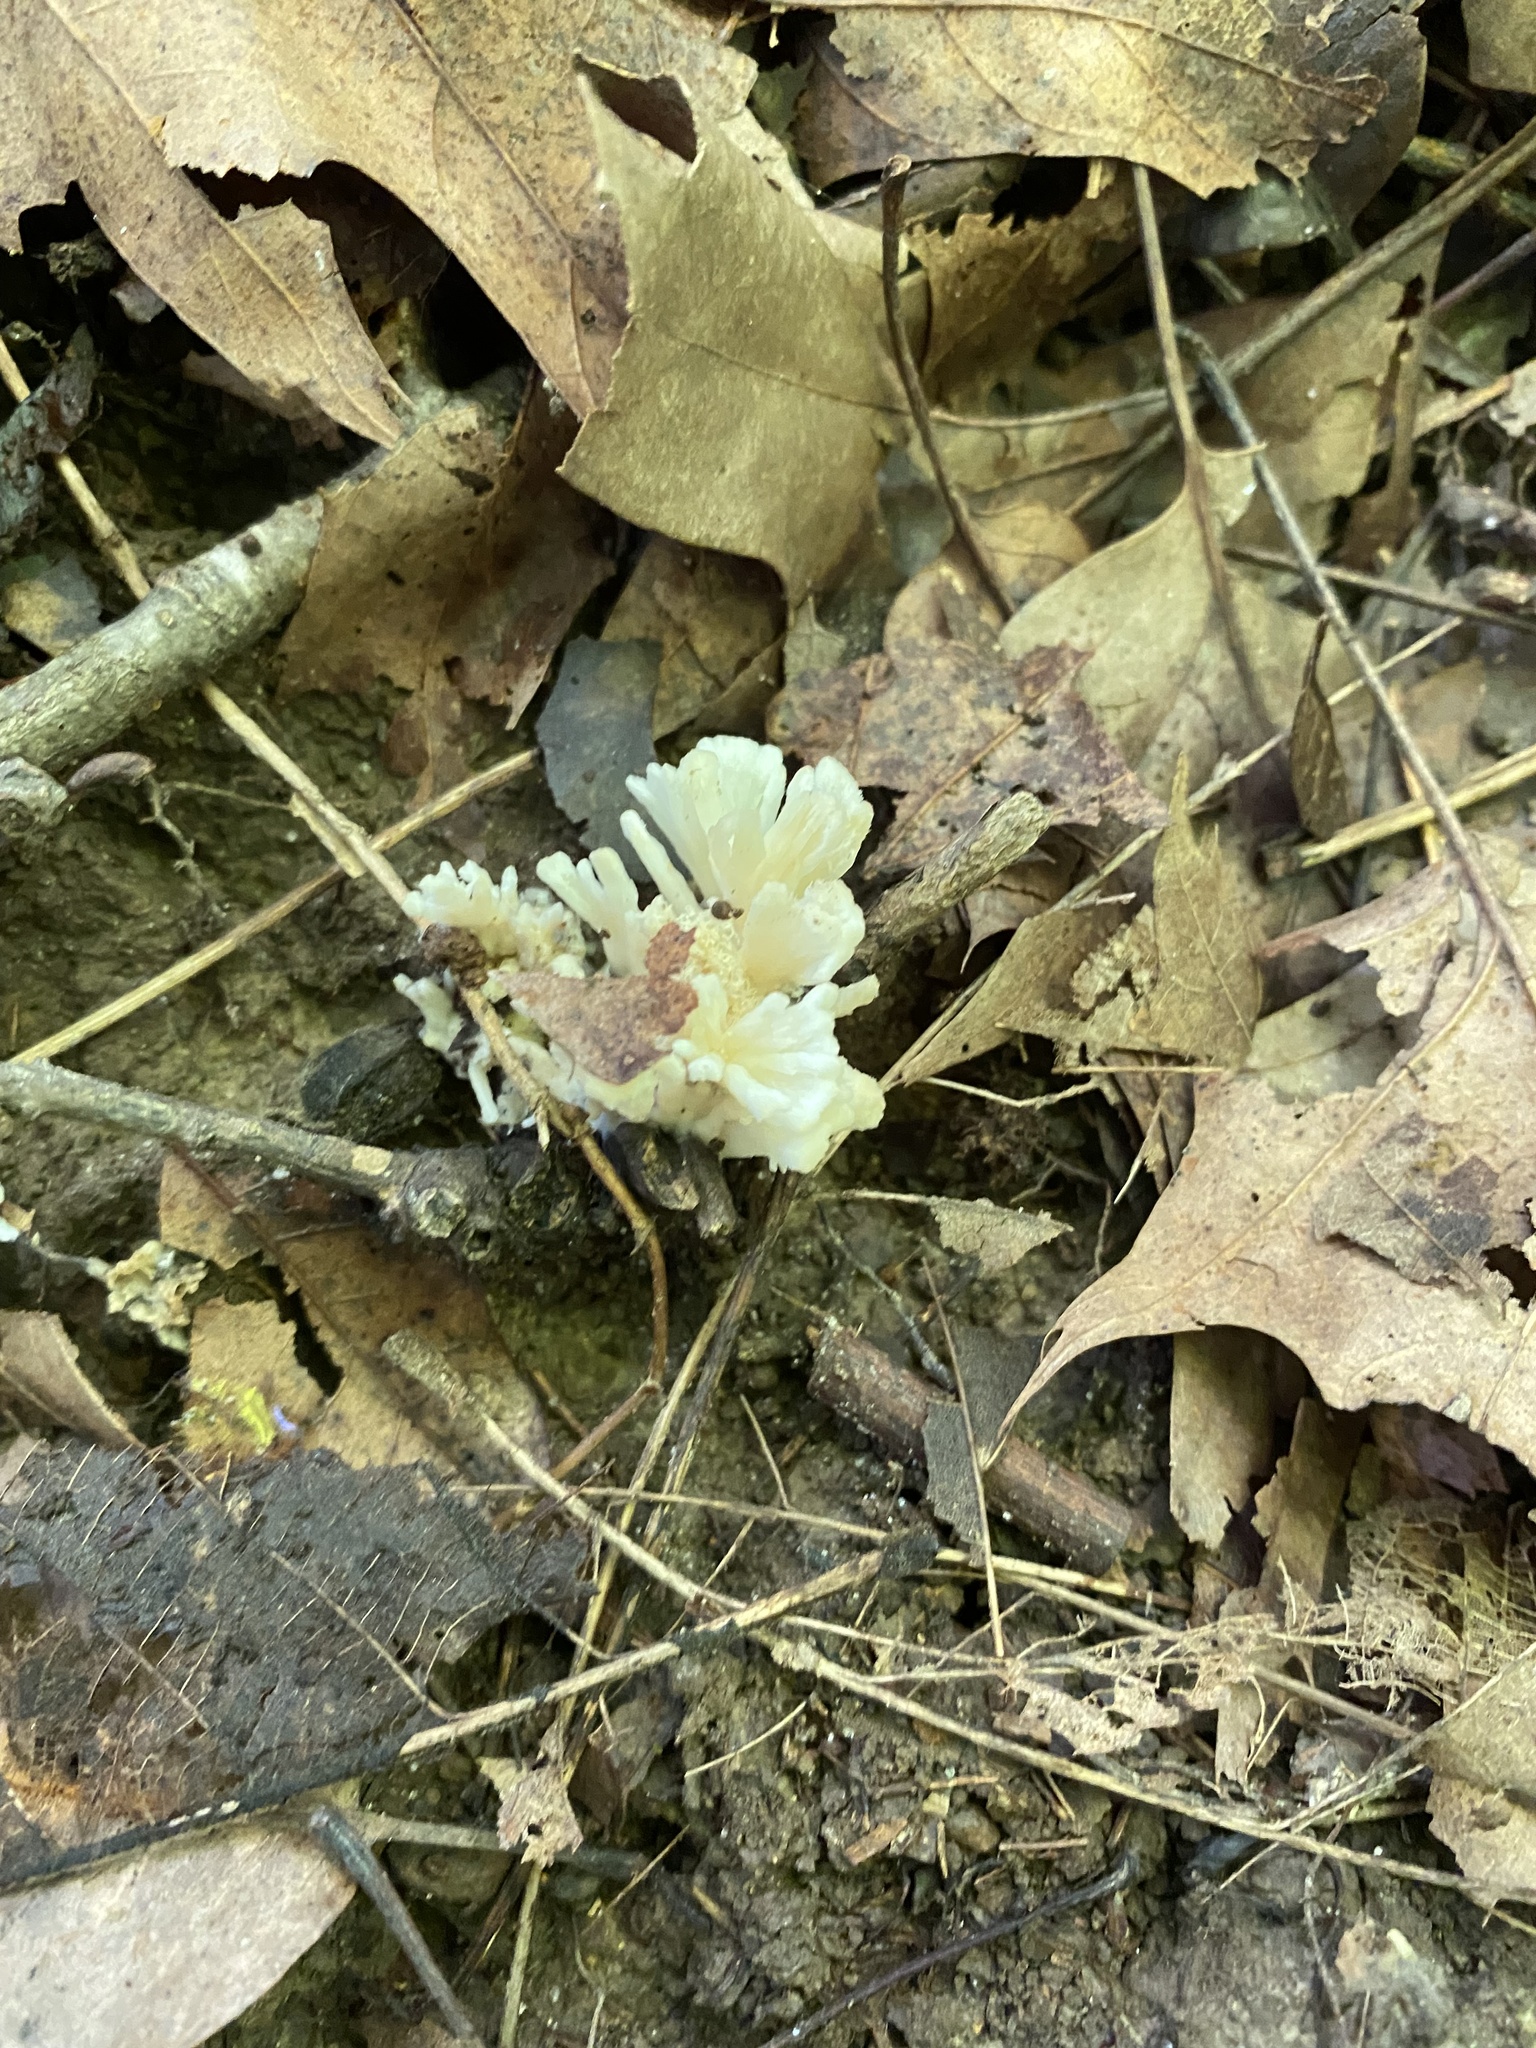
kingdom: Fungi
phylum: Basidiomycota
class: Agaricomycetes
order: Sebacinales
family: Sebacinaceae
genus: Sebacina
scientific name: Sebacina schweinitzii
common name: Jellied false coral fungus
